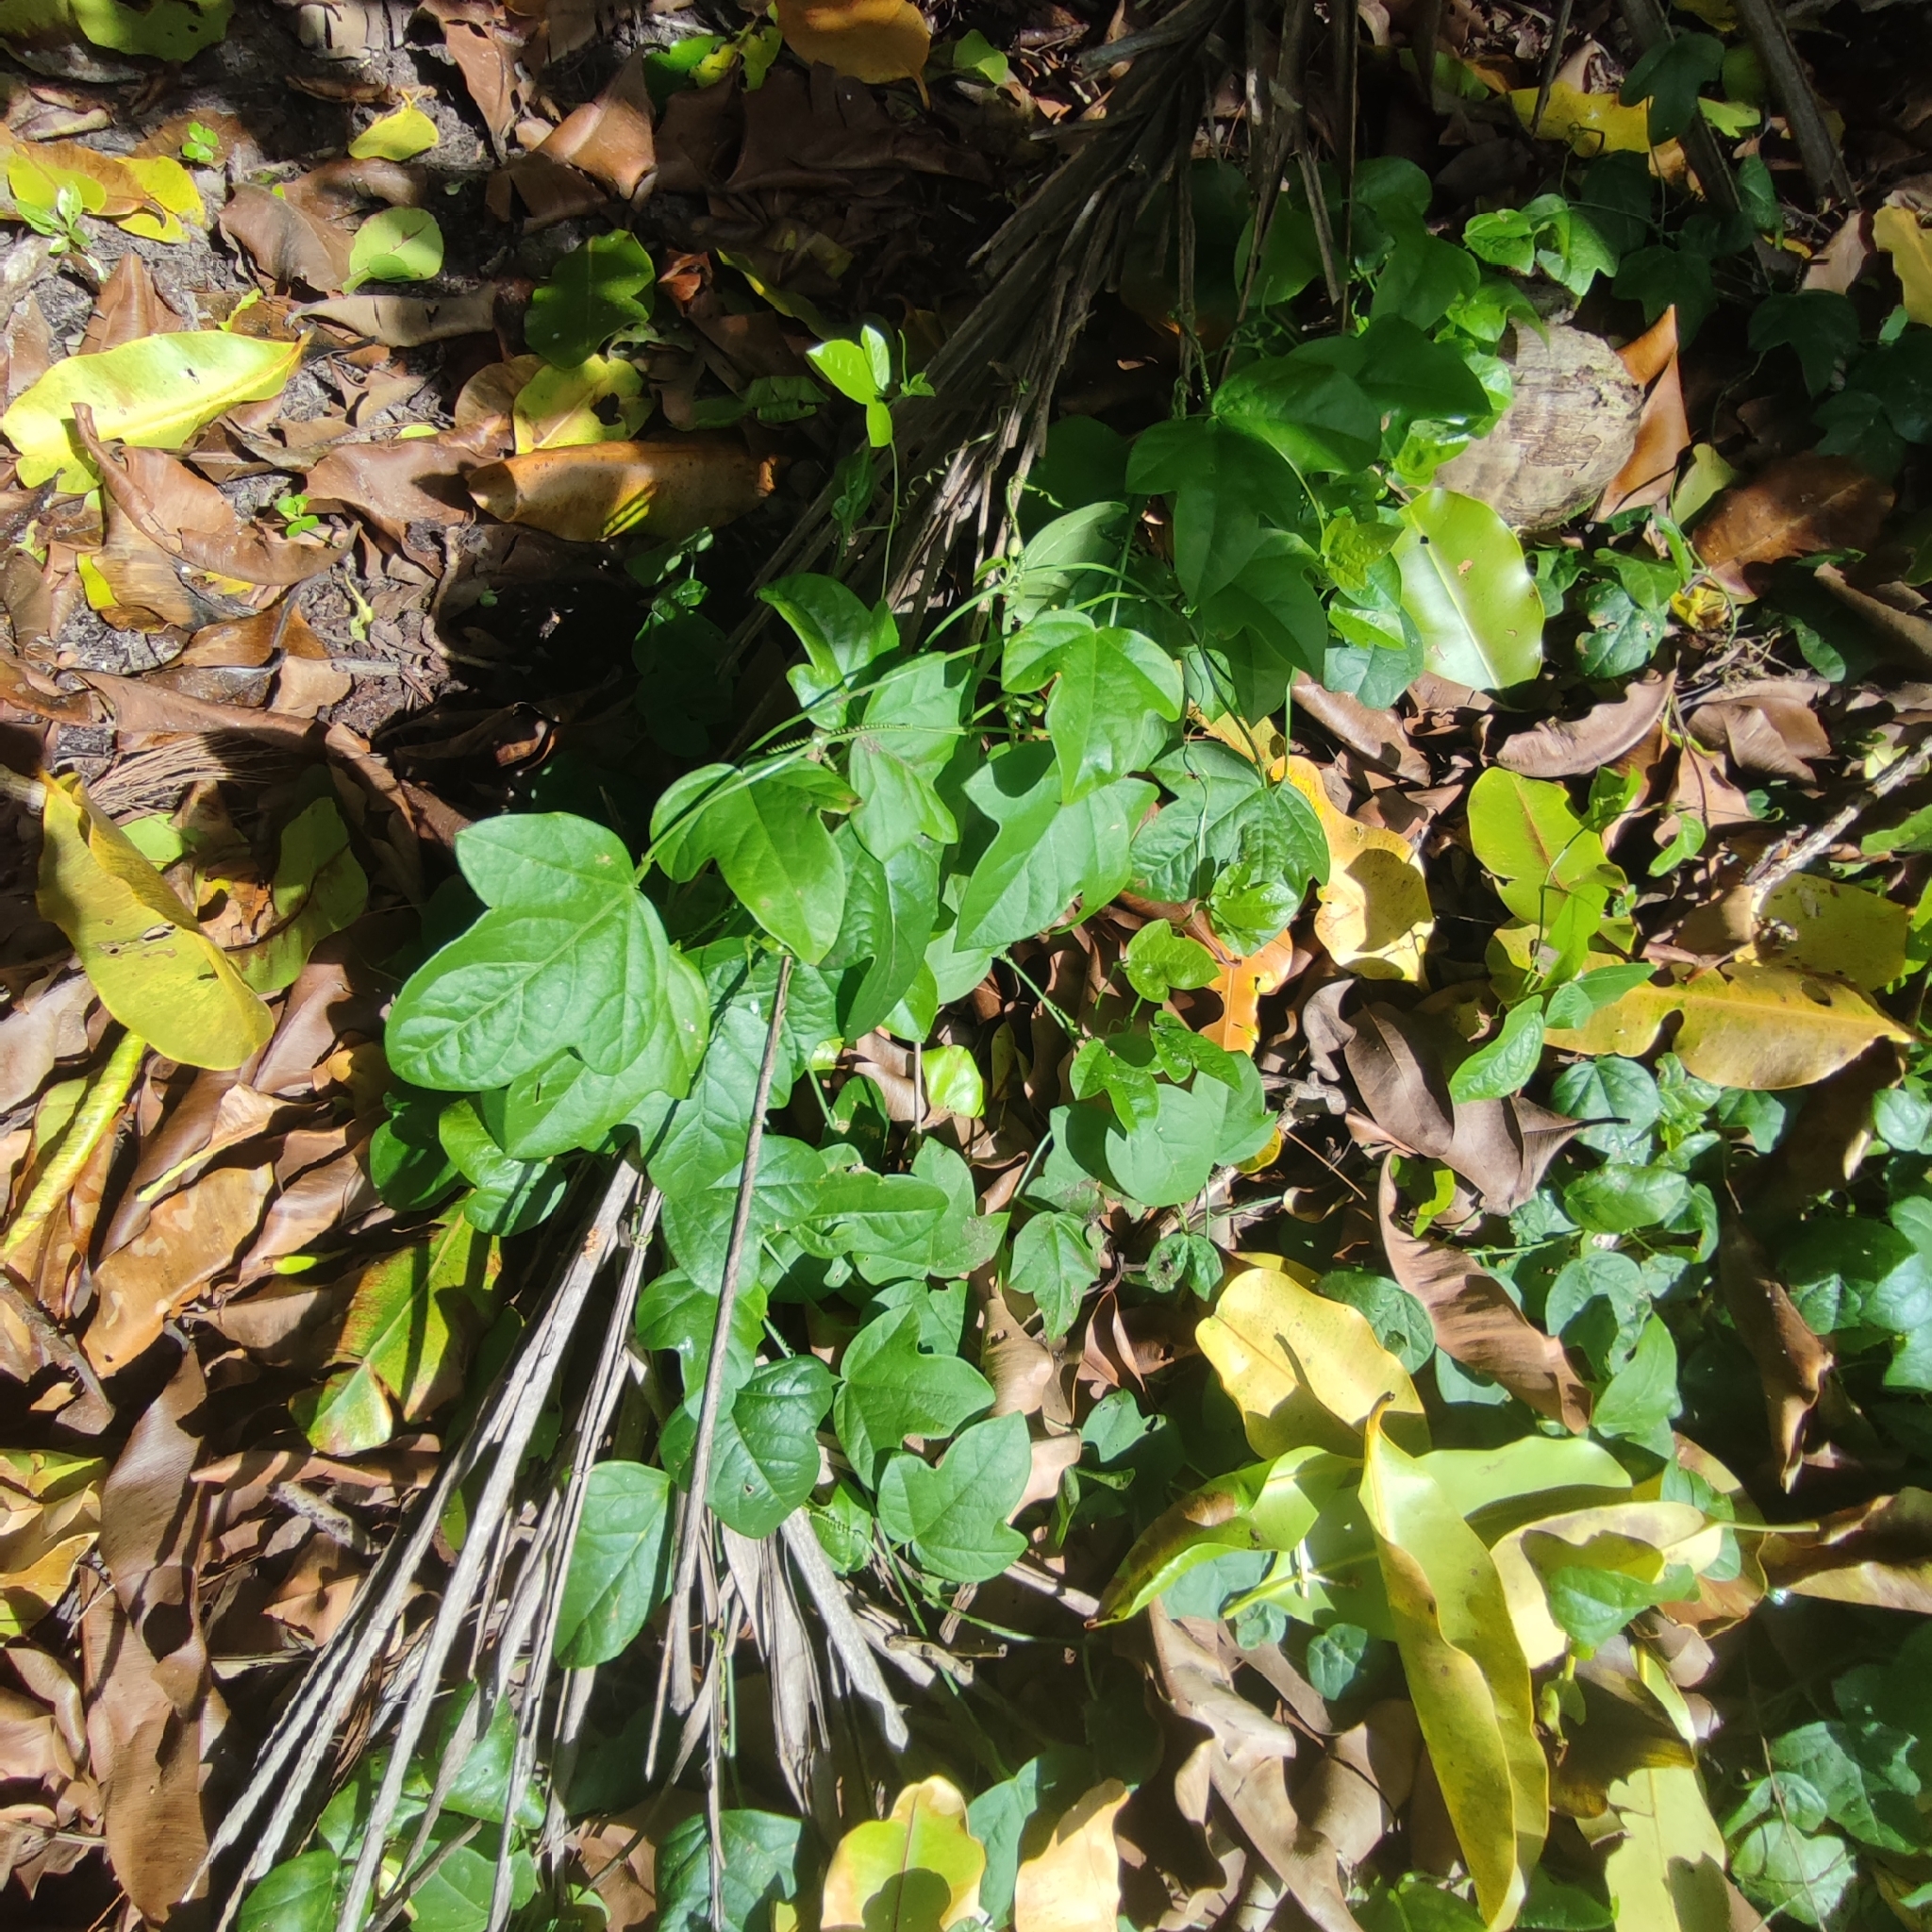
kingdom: Plantae
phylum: Tracheophyta
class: Magnoliopsida
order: Malpighiales
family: Passifloraceae
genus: Passiflora
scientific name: Passiflora pallida
